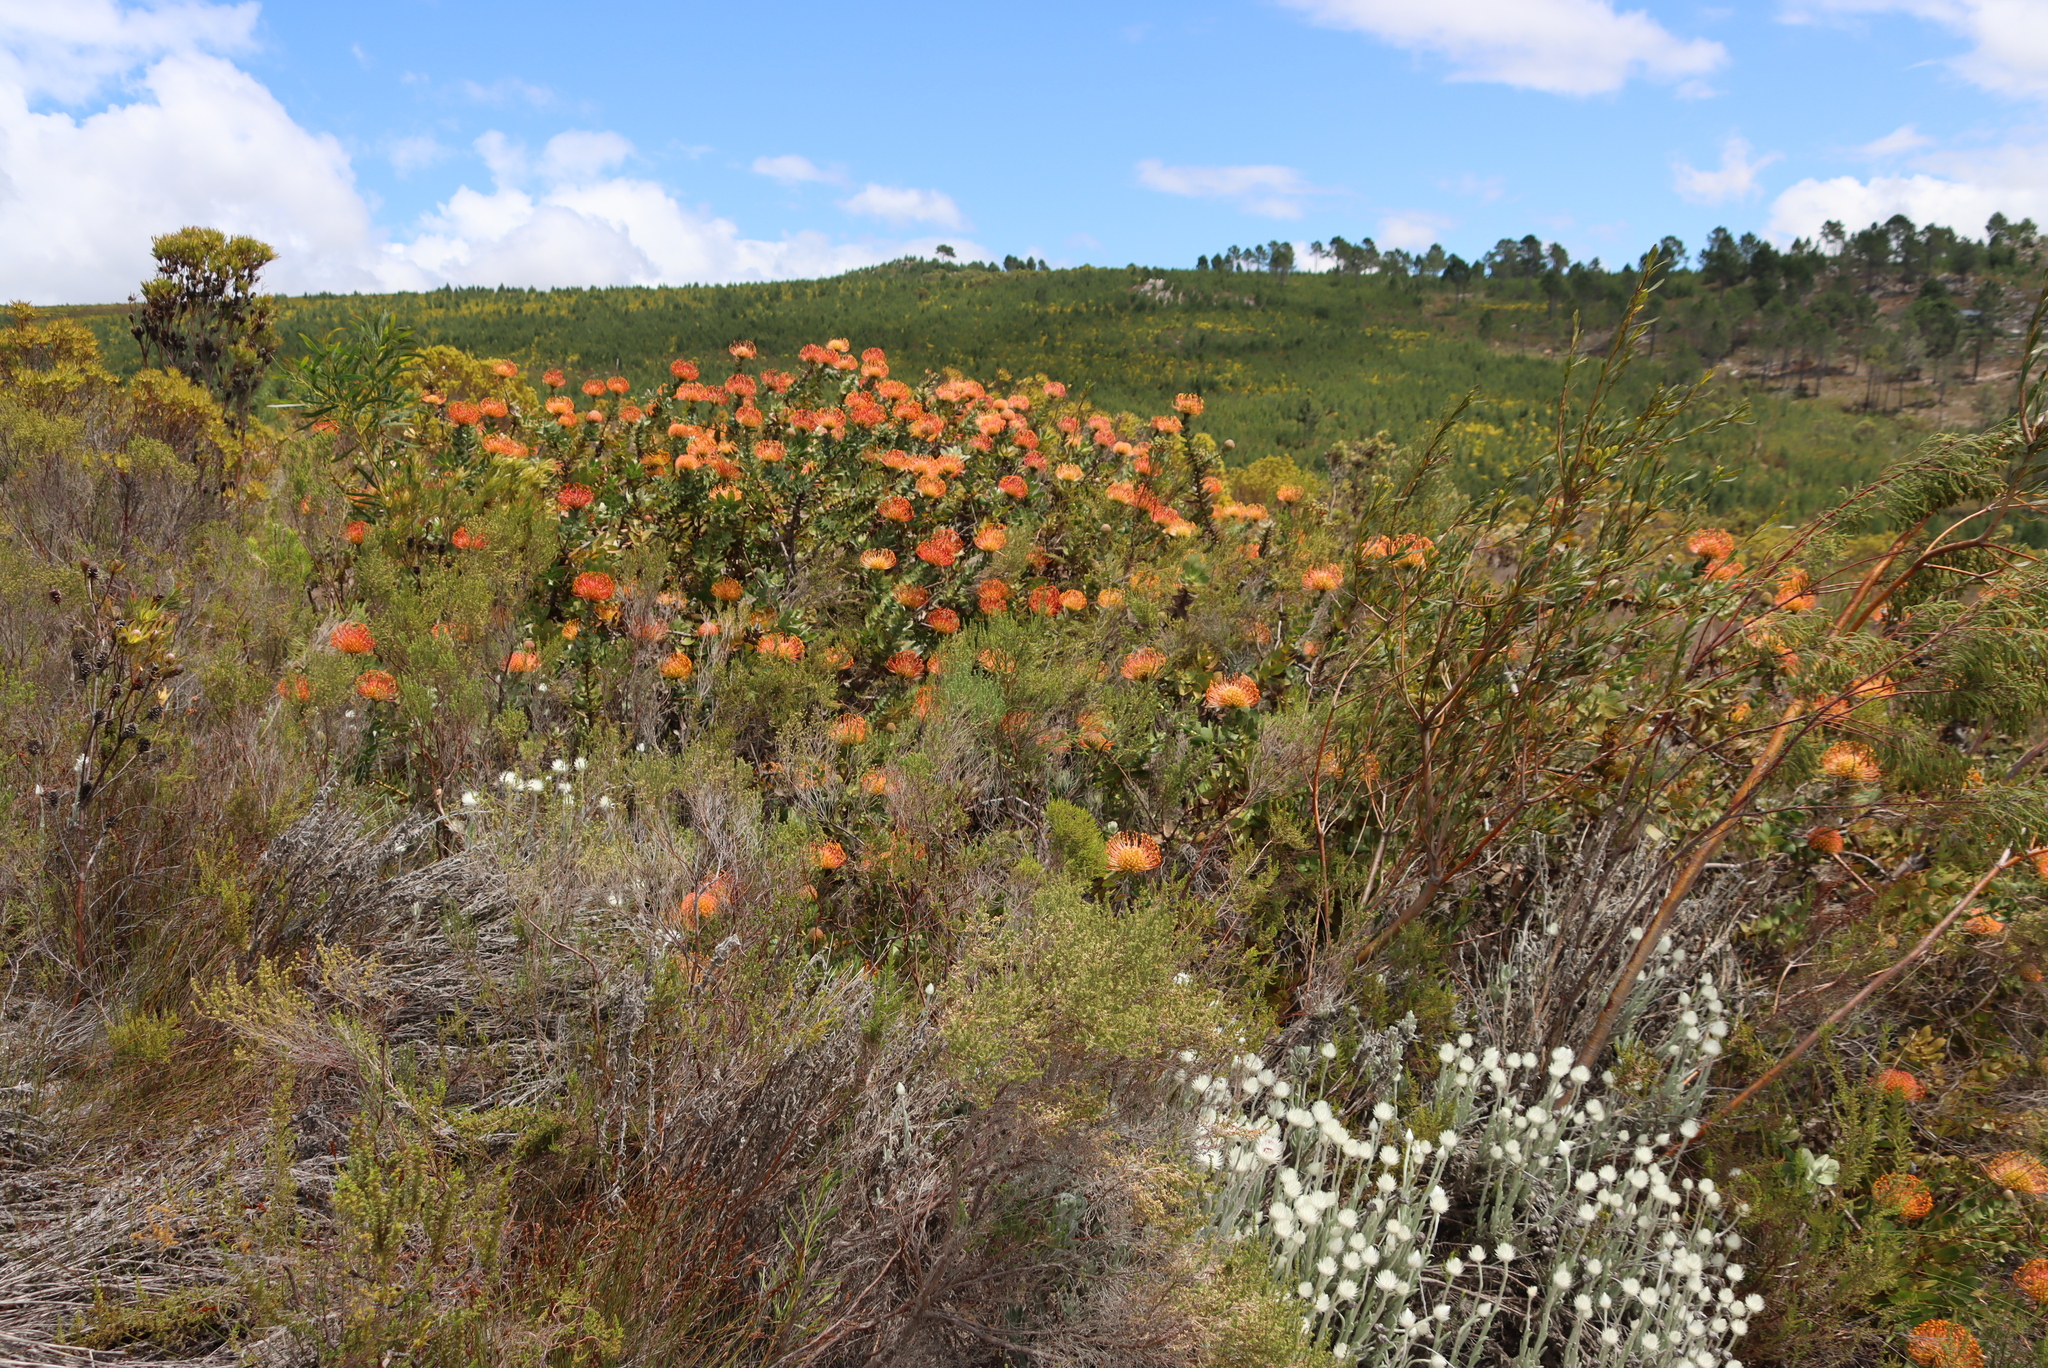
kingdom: Plantae
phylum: Tracheophyta
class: Magnoliopsida
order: Proteales
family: Proteaceae
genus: Leucospermum
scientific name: Leucospermum cordifolium
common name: Red pincushion-protea
